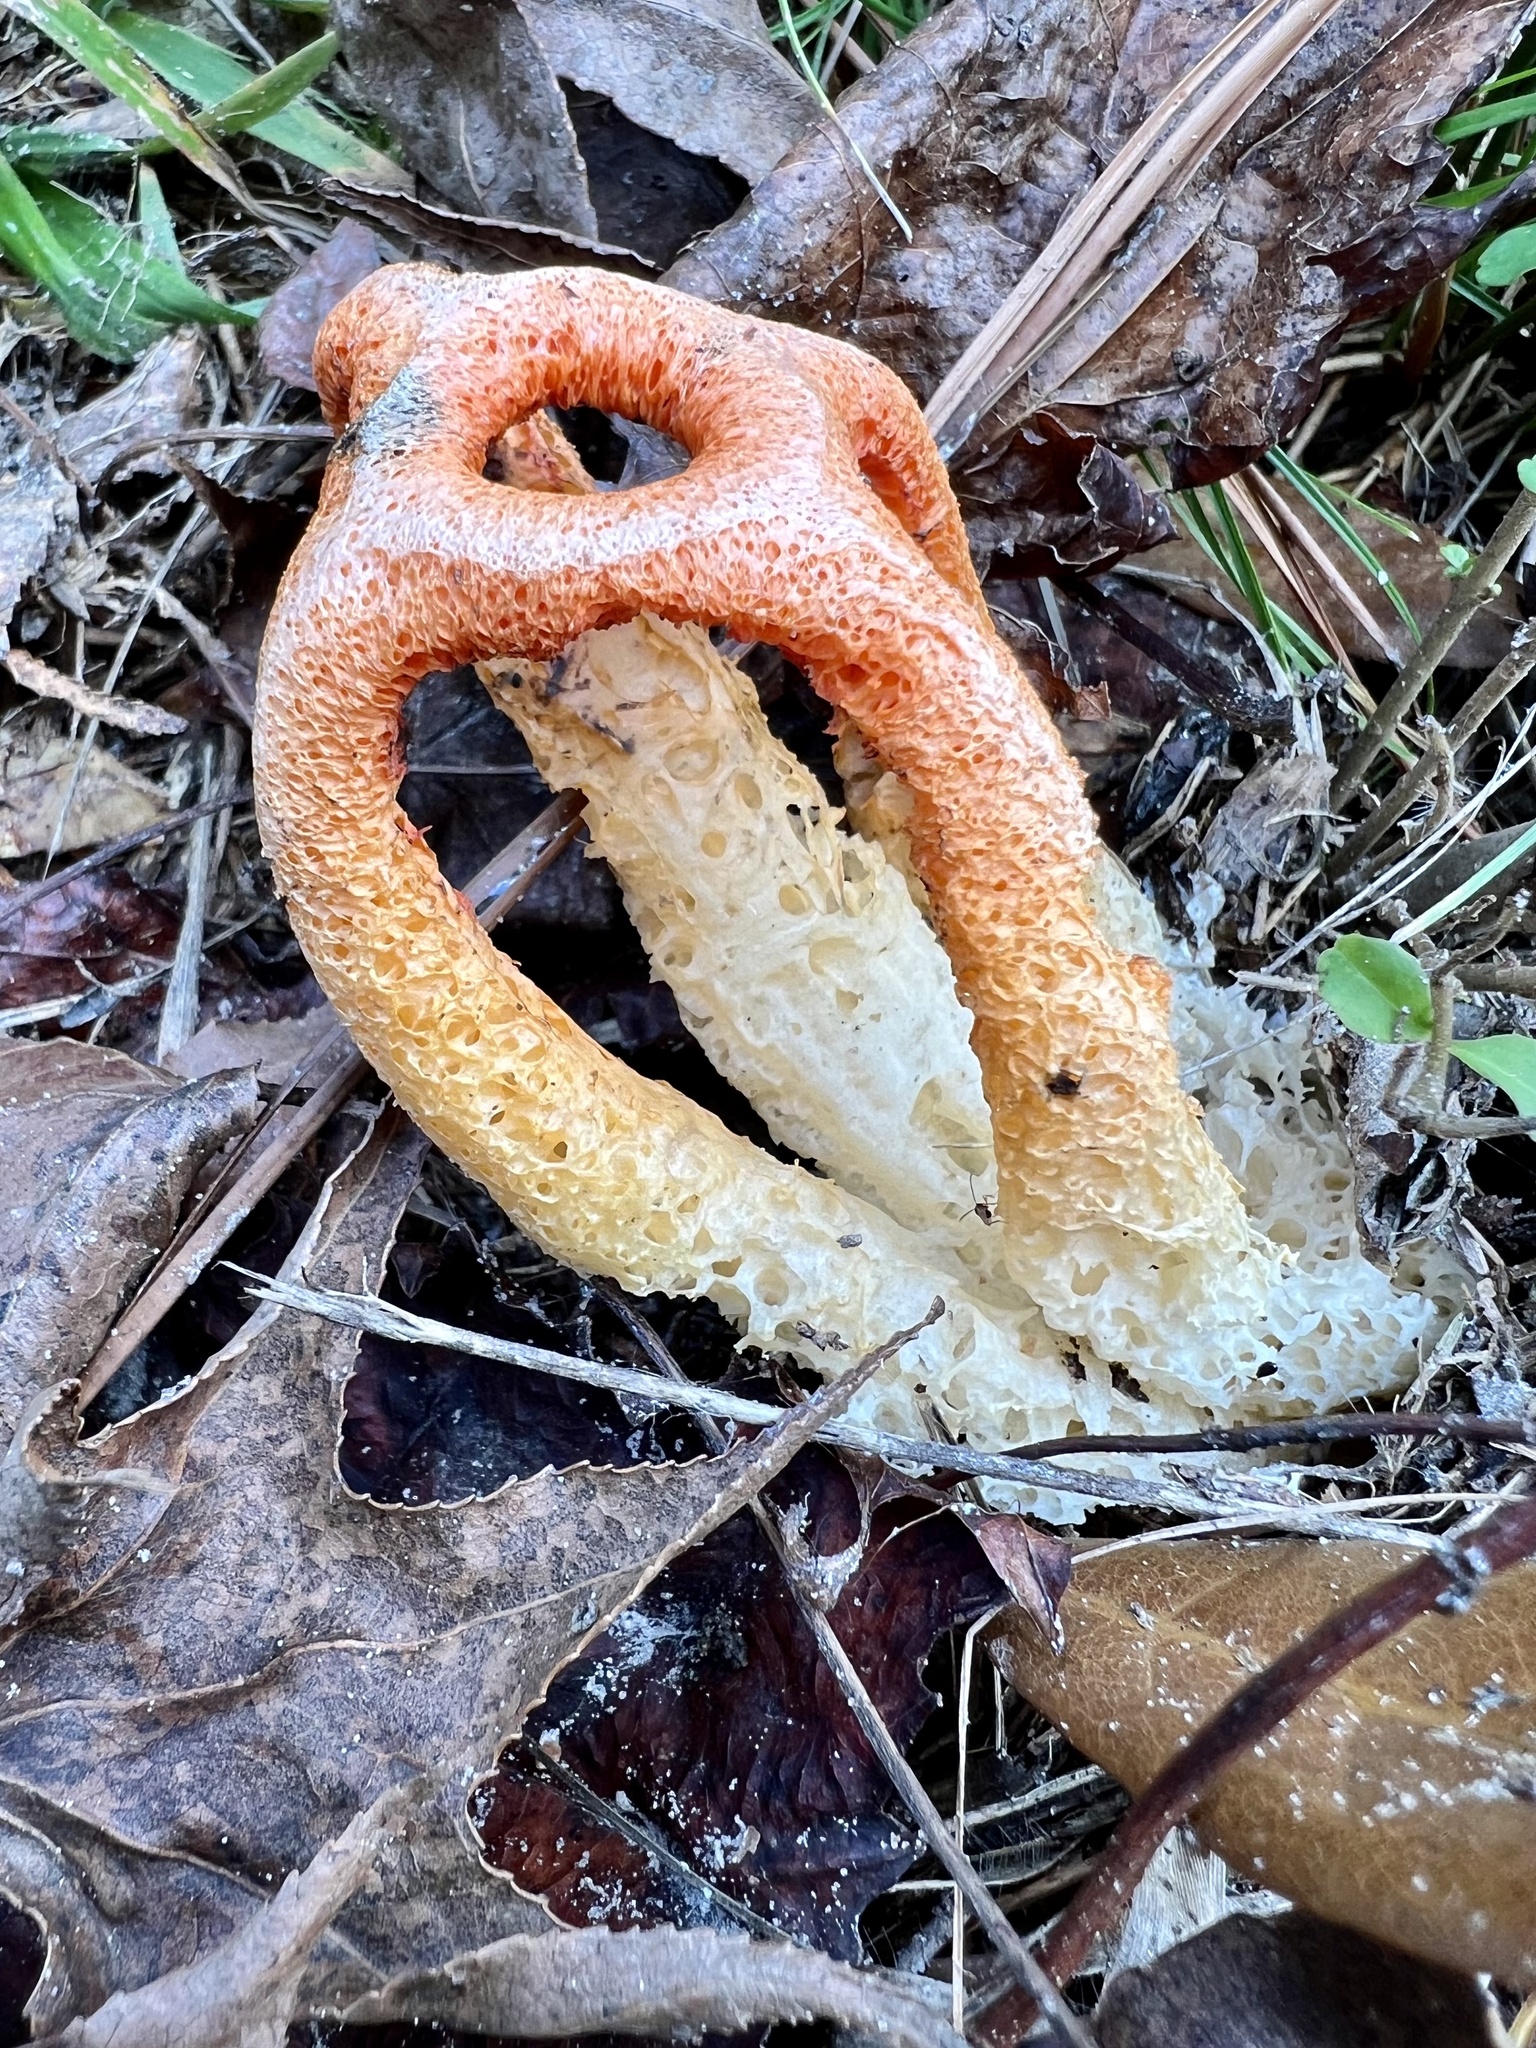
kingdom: Fungi
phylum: Basidiomycota
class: Agaricomycetes
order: Phallales
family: Phallaceae
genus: Clathrus
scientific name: Clathrus columnatus
